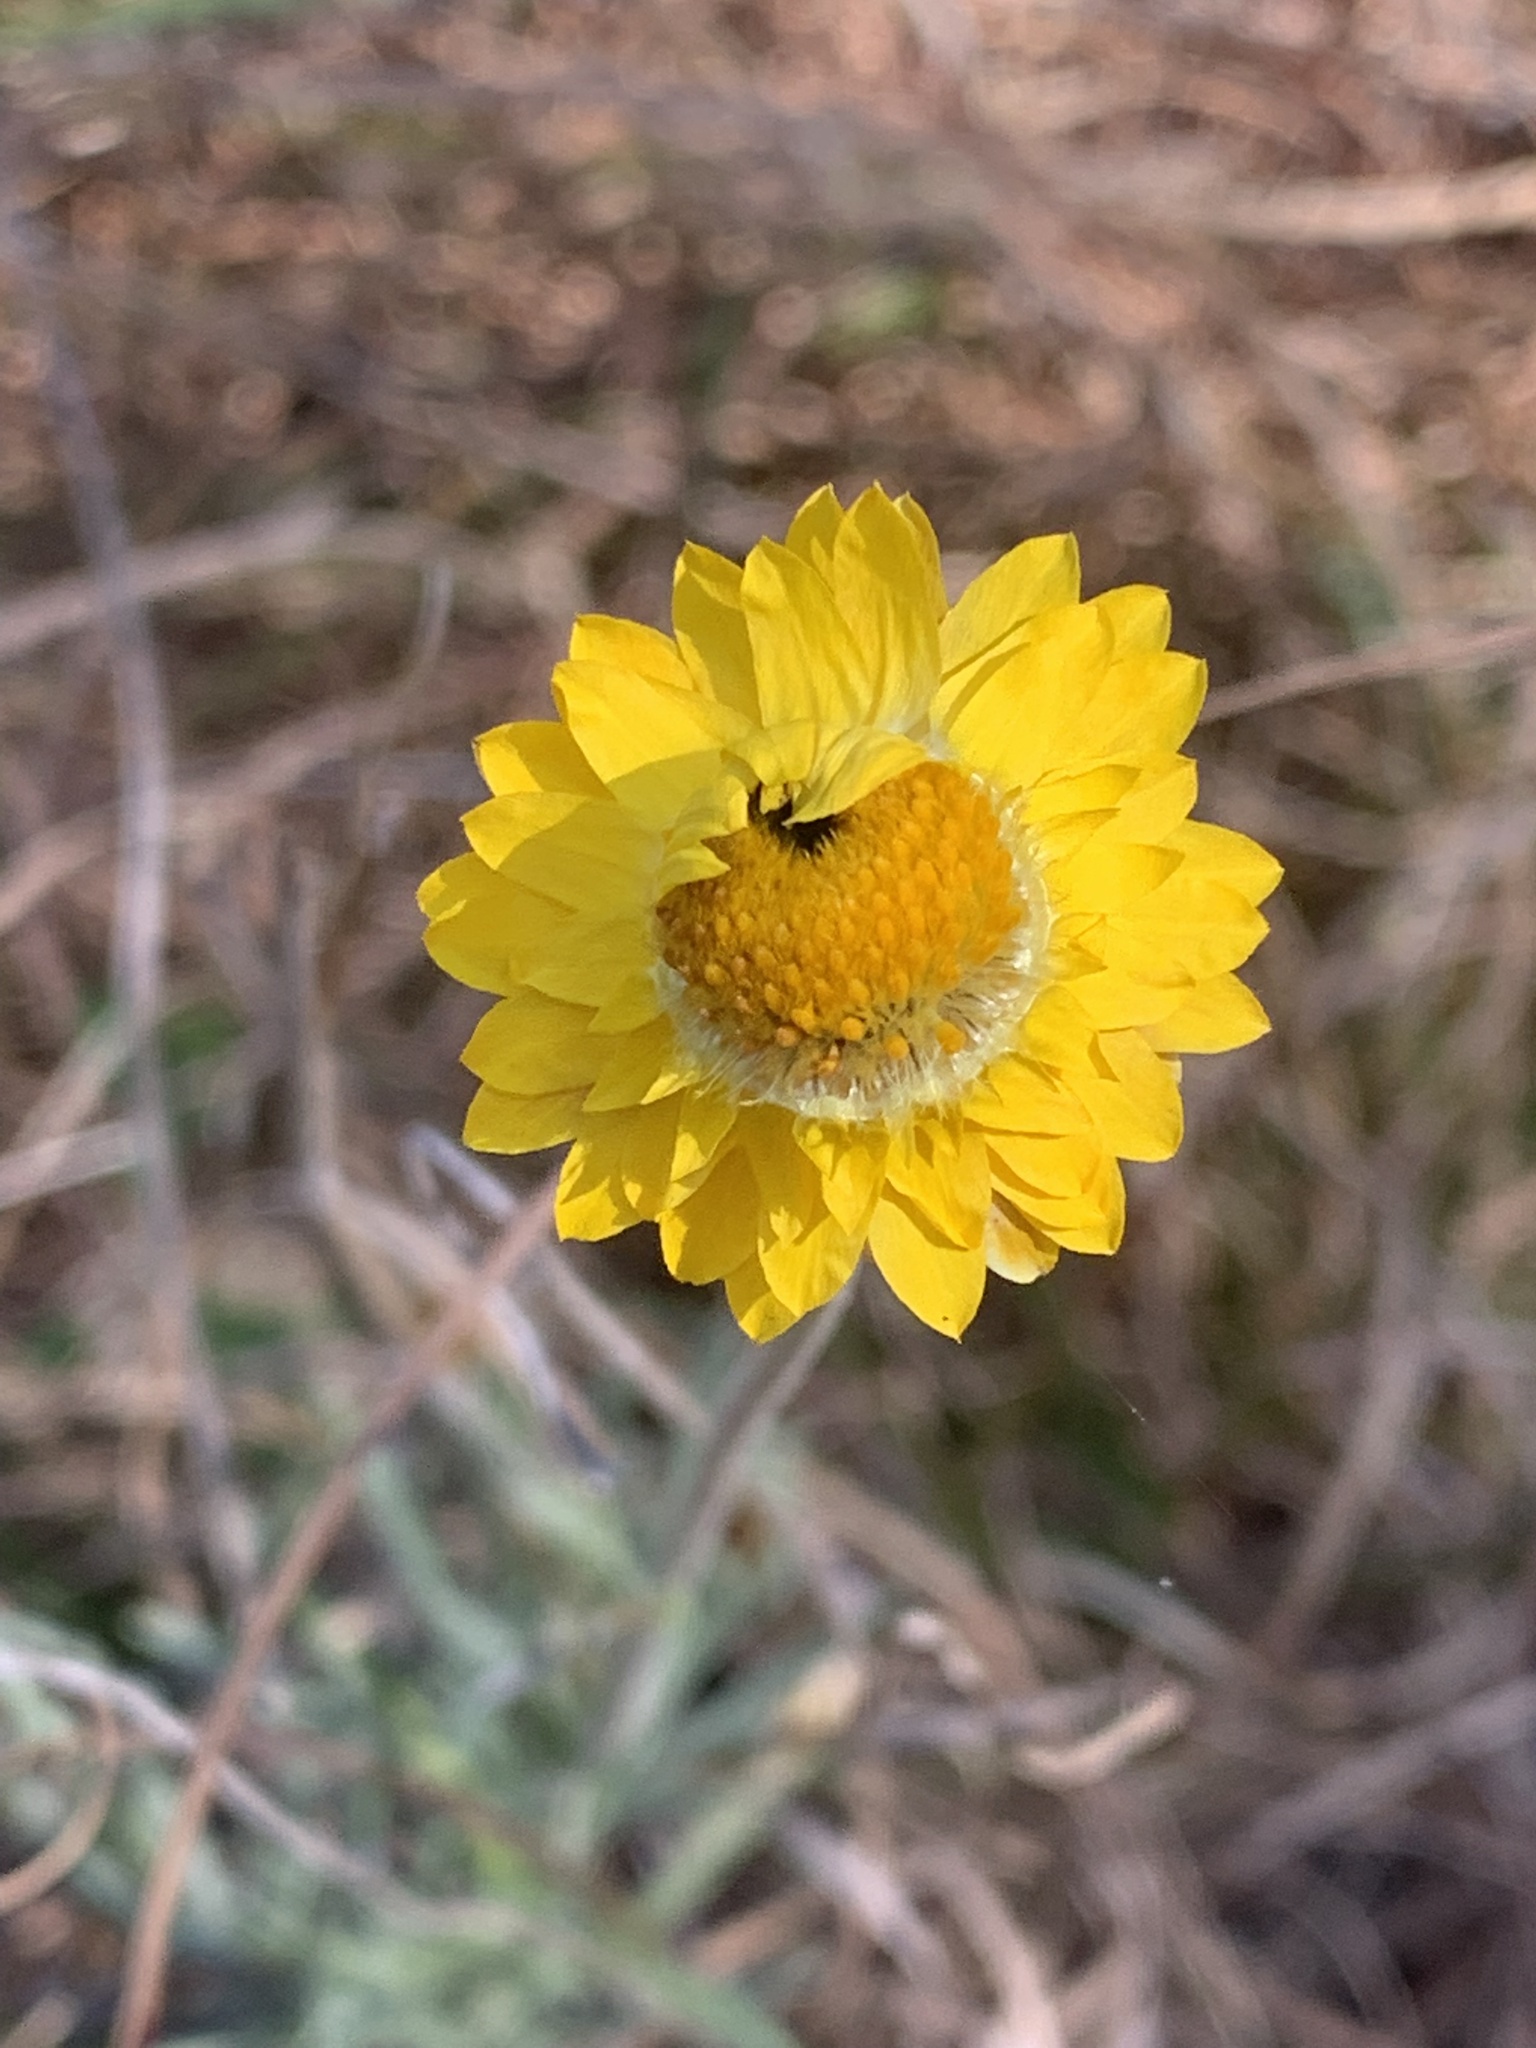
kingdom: Plantae
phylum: Tracheophyta
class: Magnoliopsida
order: Asterales
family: Asteraceae
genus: Leucochrysum
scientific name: Leucochrysum albicans
